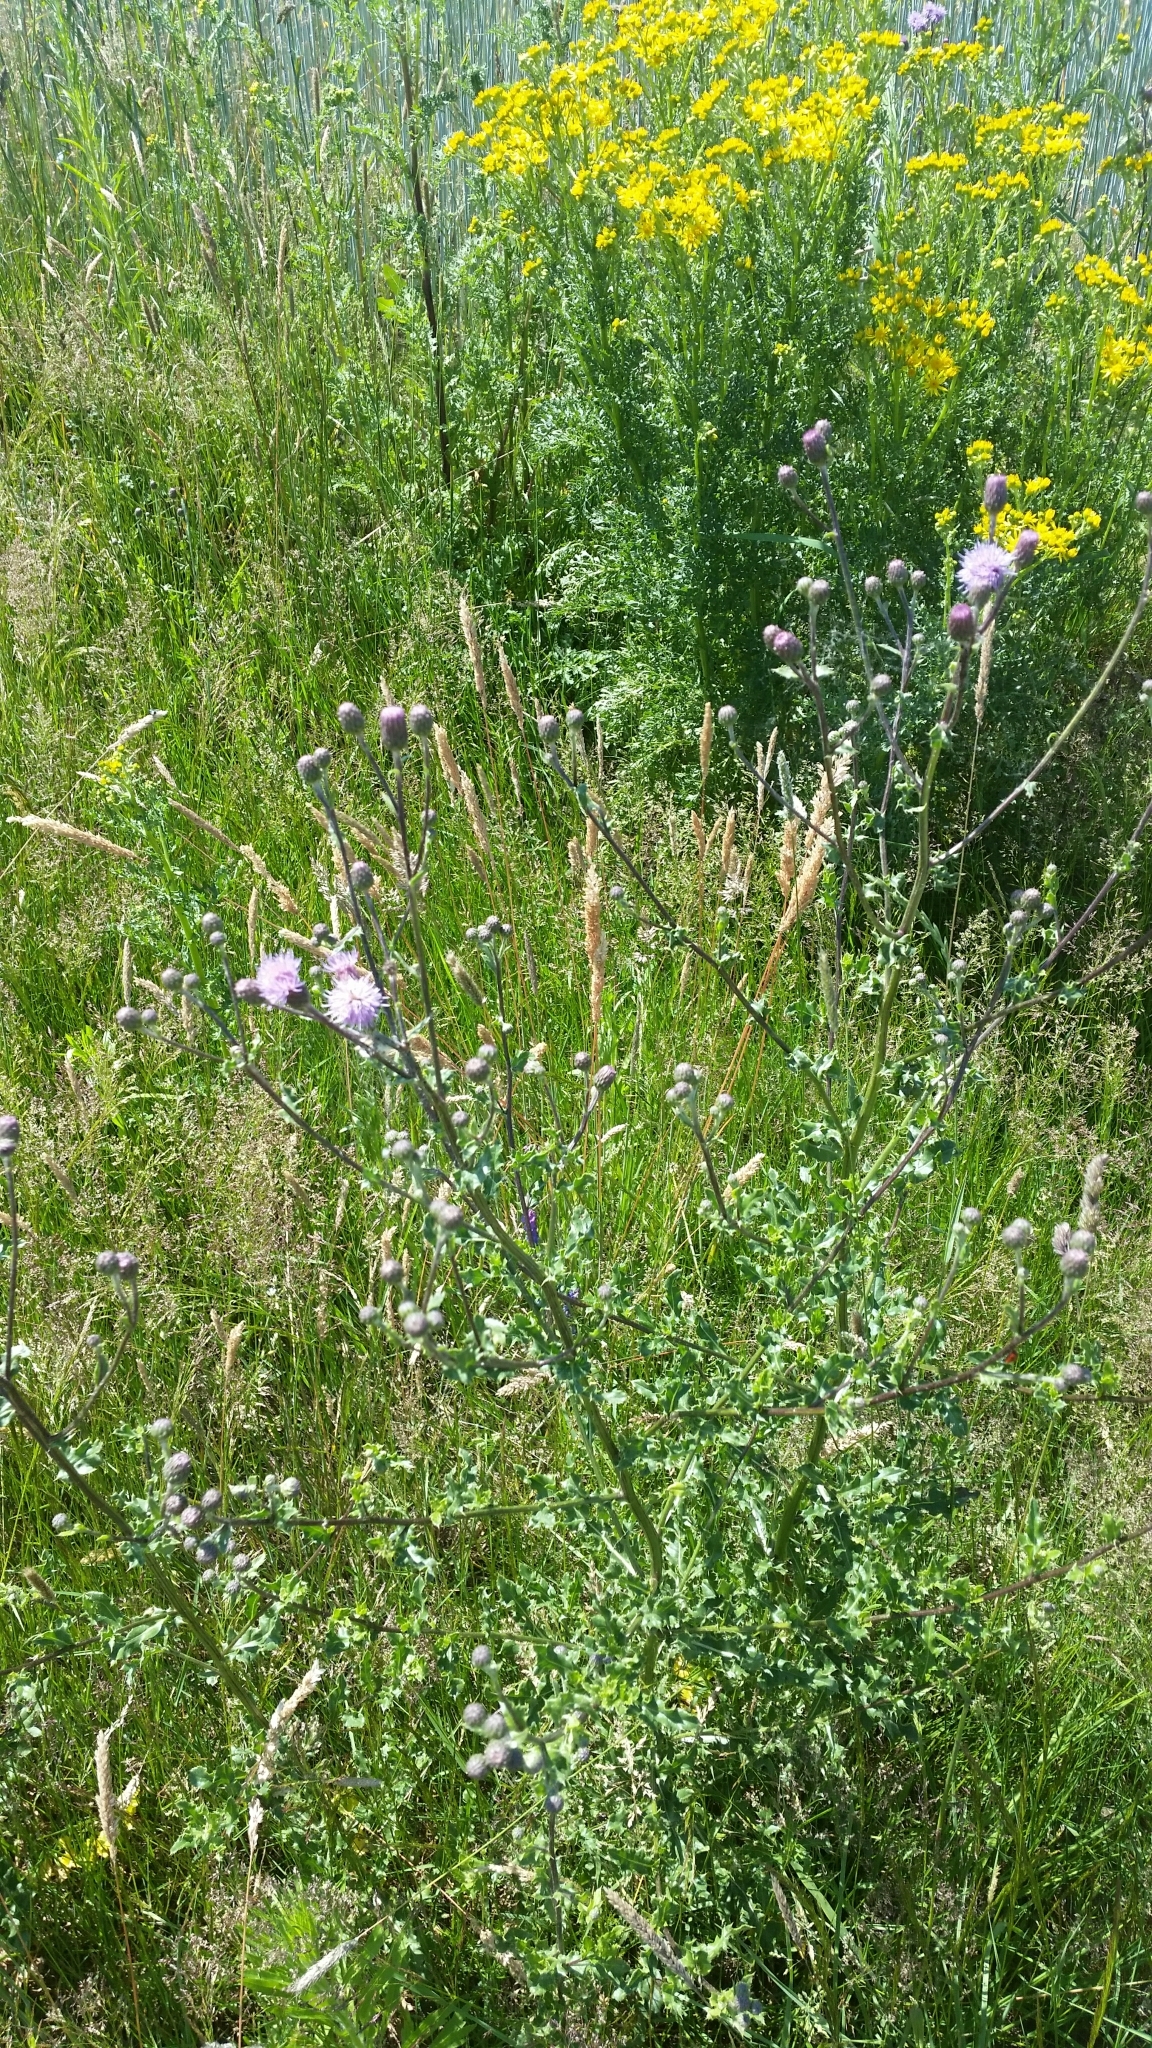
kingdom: Plantae
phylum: Tracheophyta
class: Magnoliopsida
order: Asterales
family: Asteraceae
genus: Cirsium
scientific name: Cirsium arvense
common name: Creeping thistle
